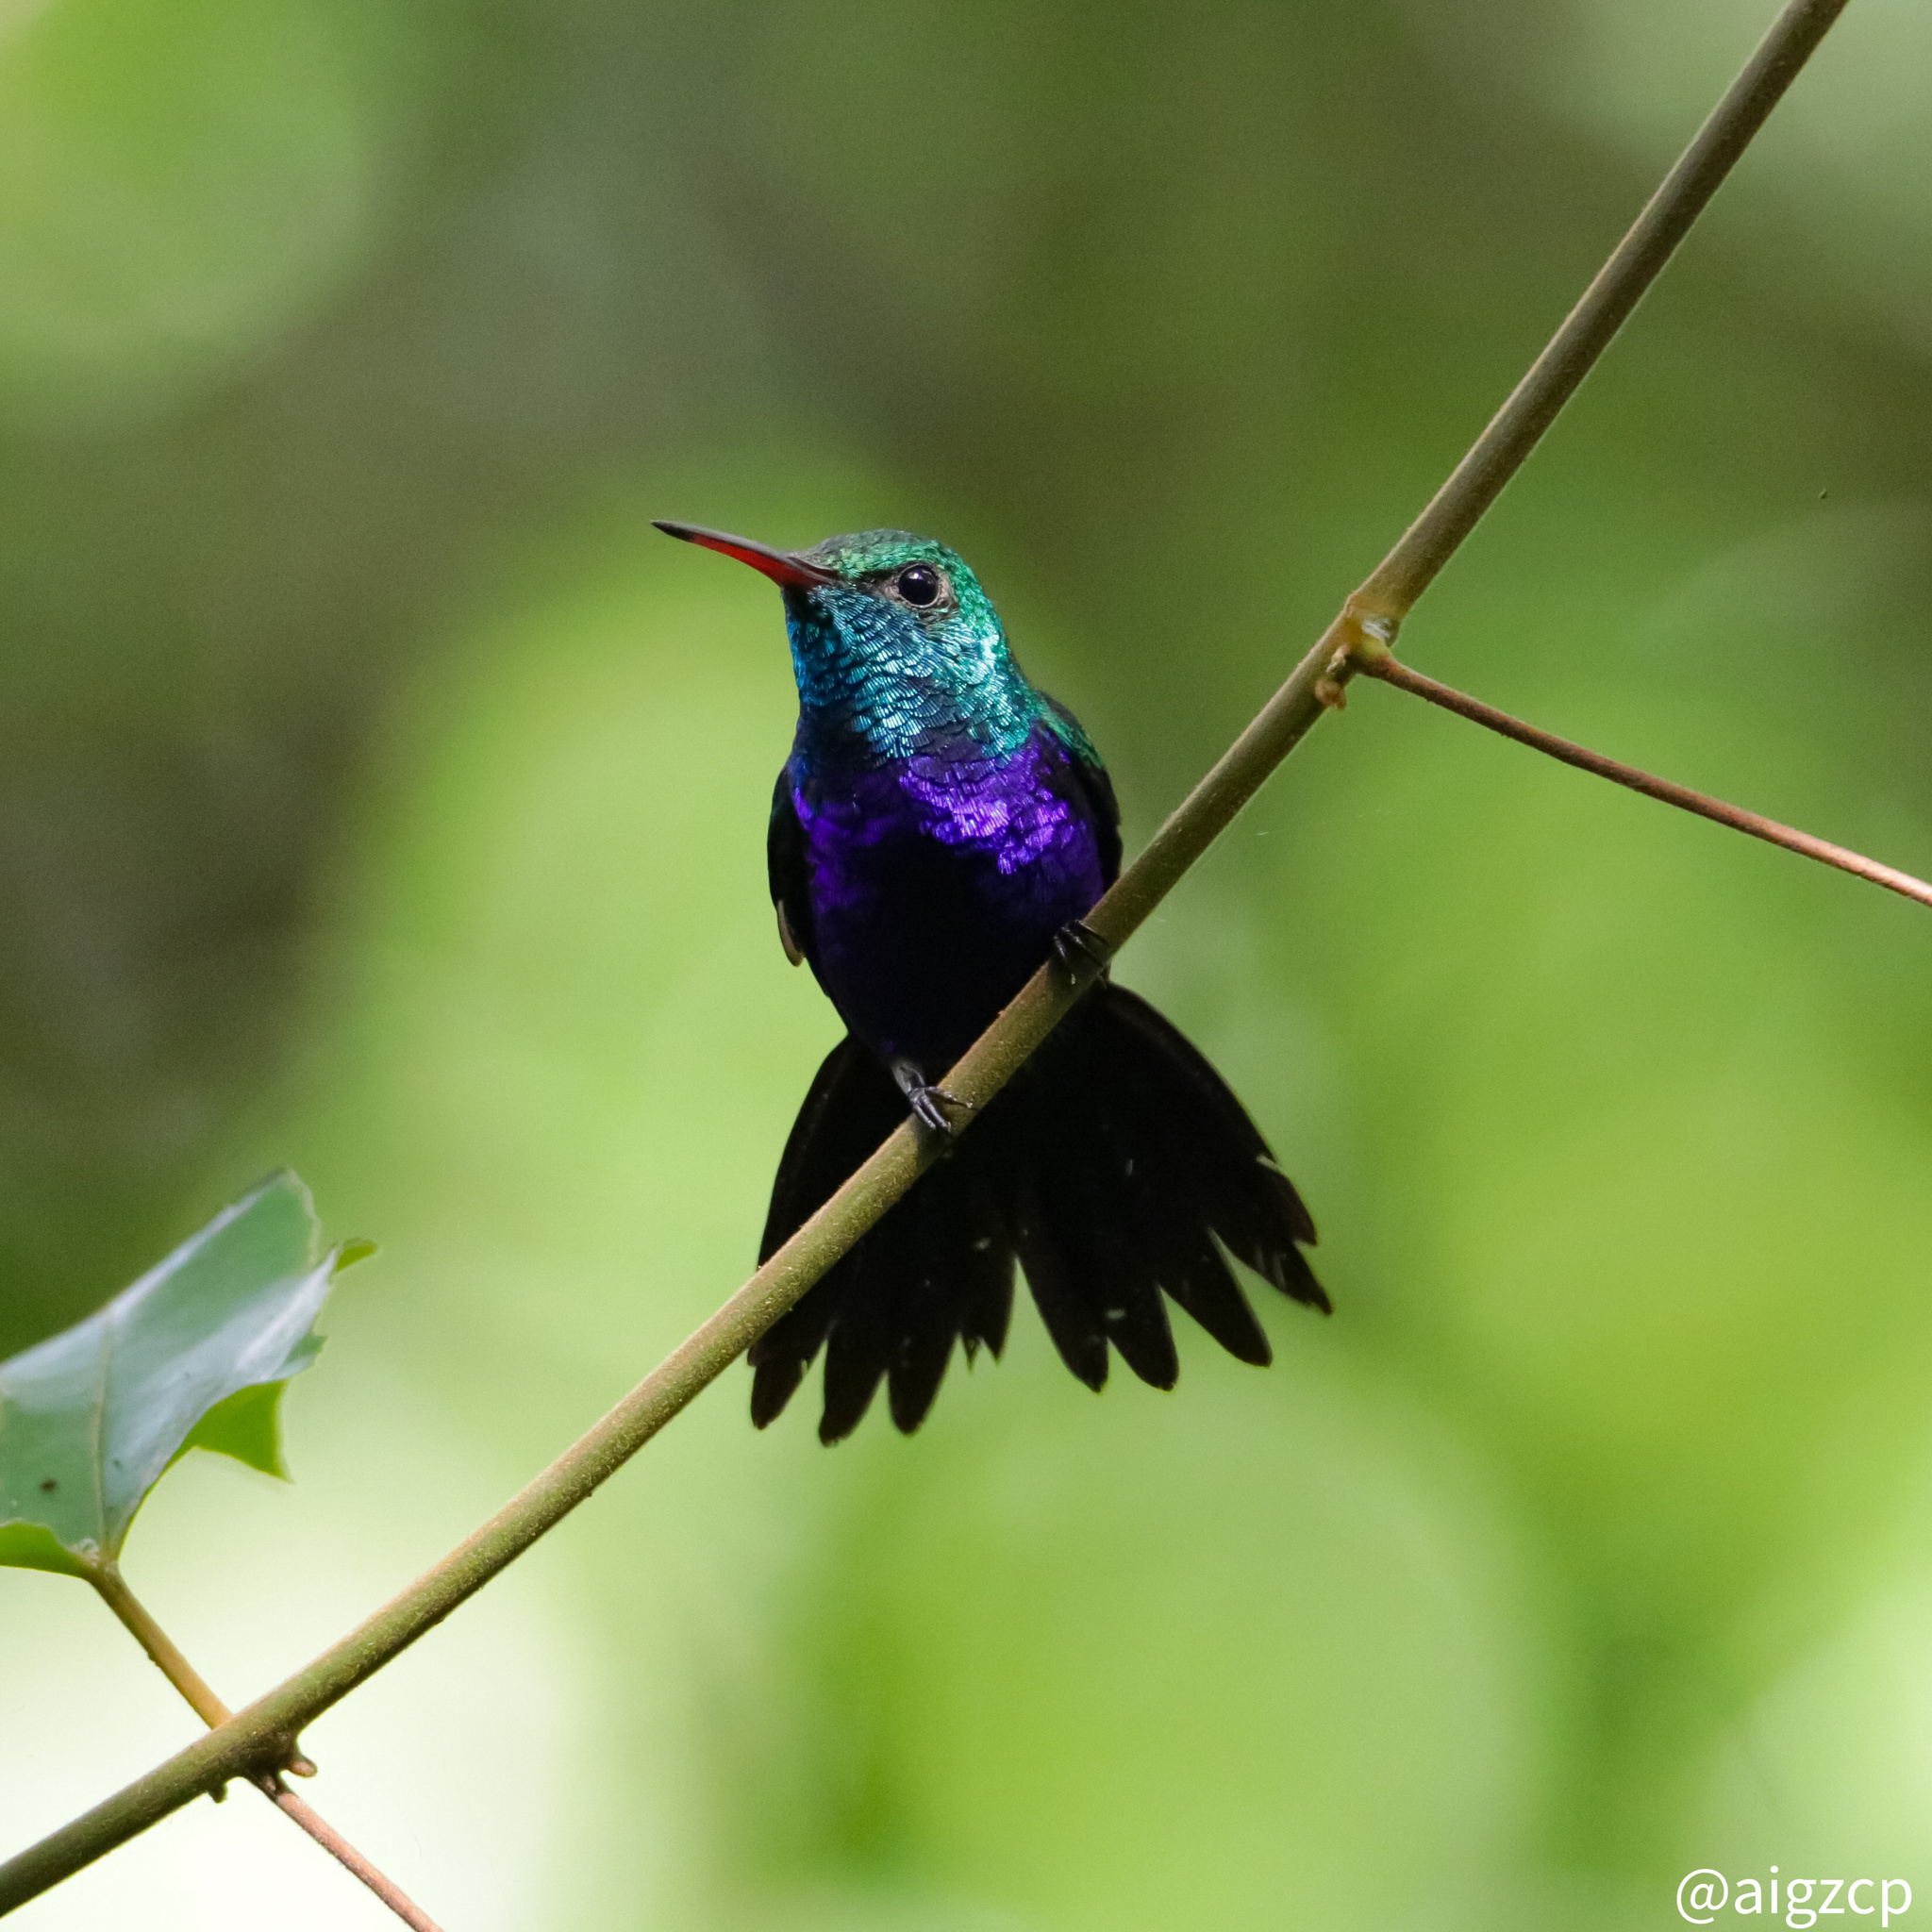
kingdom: Animalia
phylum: Chordata
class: Aves
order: Apodiformes
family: Trochilidae
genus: Chlorestes
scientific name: Chlorestes julie
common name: Violet-bellied hummingbird
